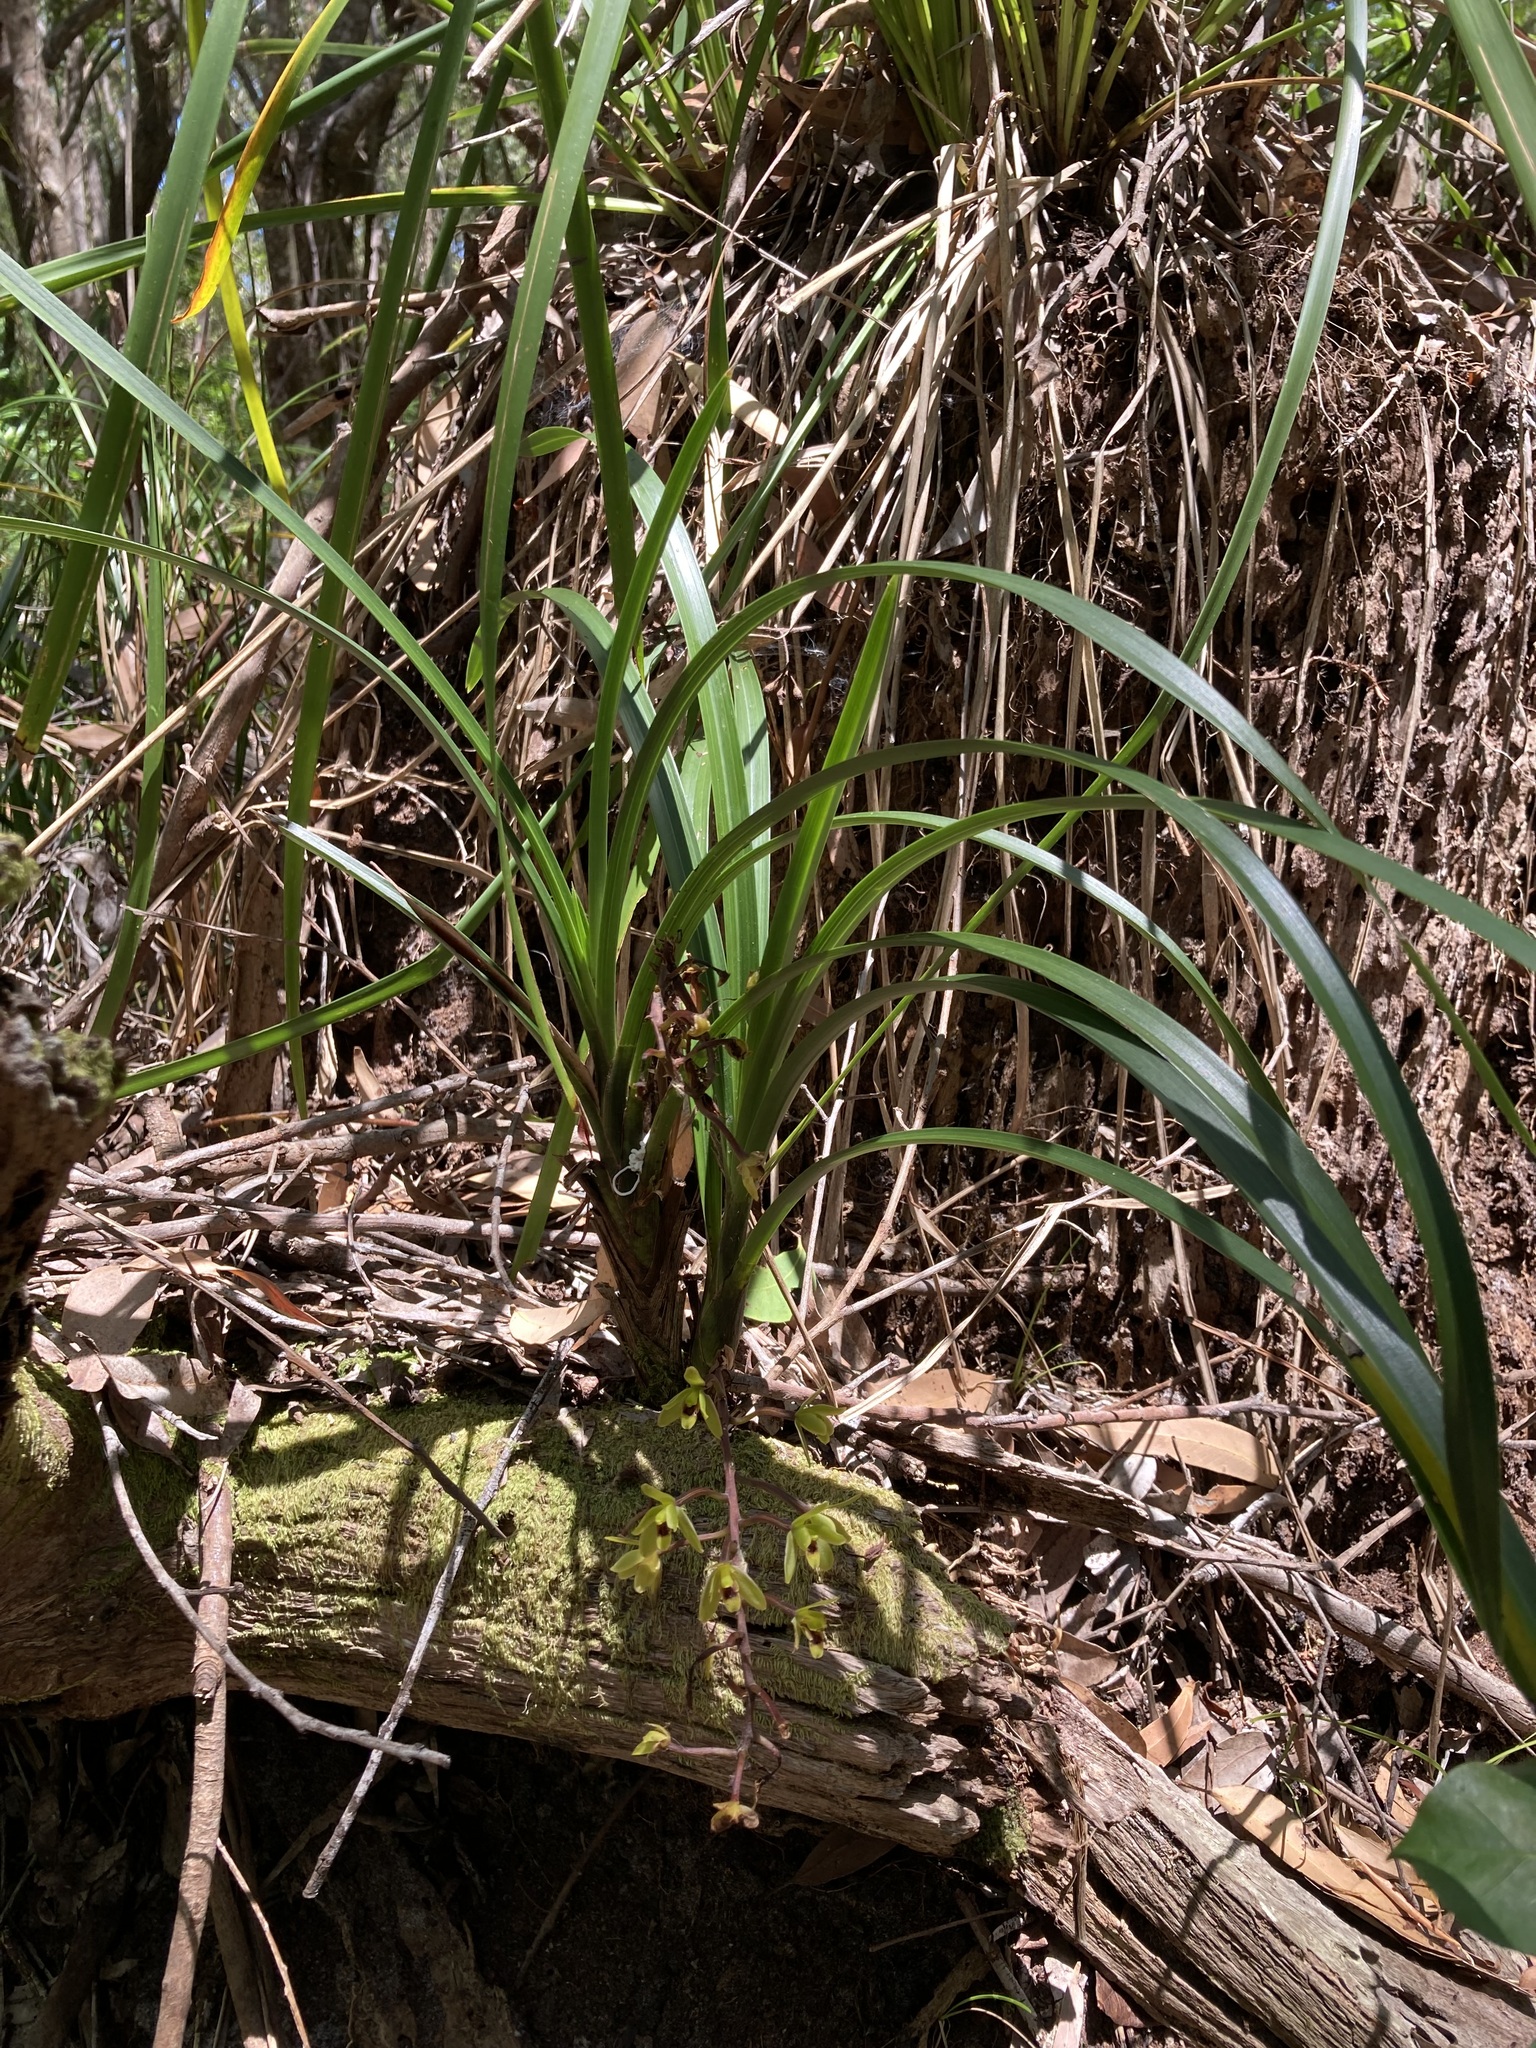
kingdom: Plantae
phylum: Tracheophyta
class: Liliopsida
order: Asparagales
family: Orchidaceae
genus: Cymbidium
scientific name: Cymbidium suave
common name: Snake orchid
